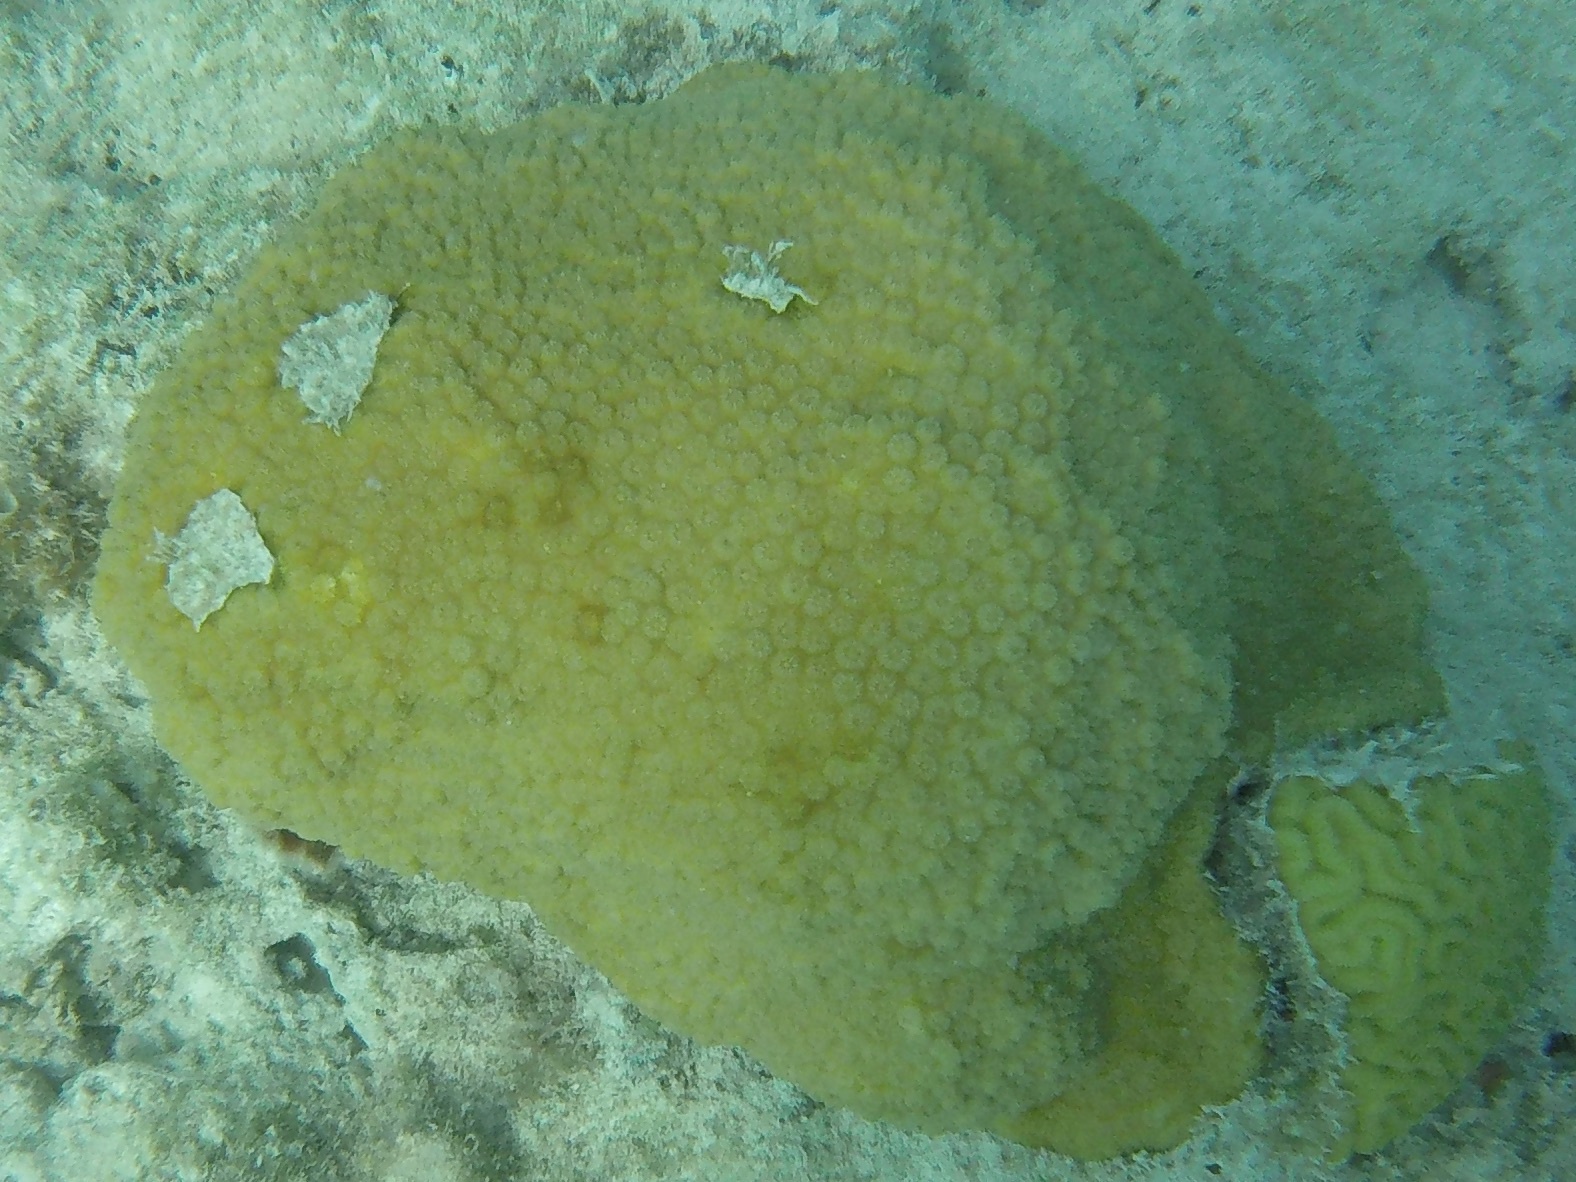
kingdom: Animalia
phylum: Cnidaria
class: Anthozoa
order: Scleractinia
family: Merulinidae
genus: Orbicella
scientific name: Orbicella franksi
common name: Bumpy star coral
